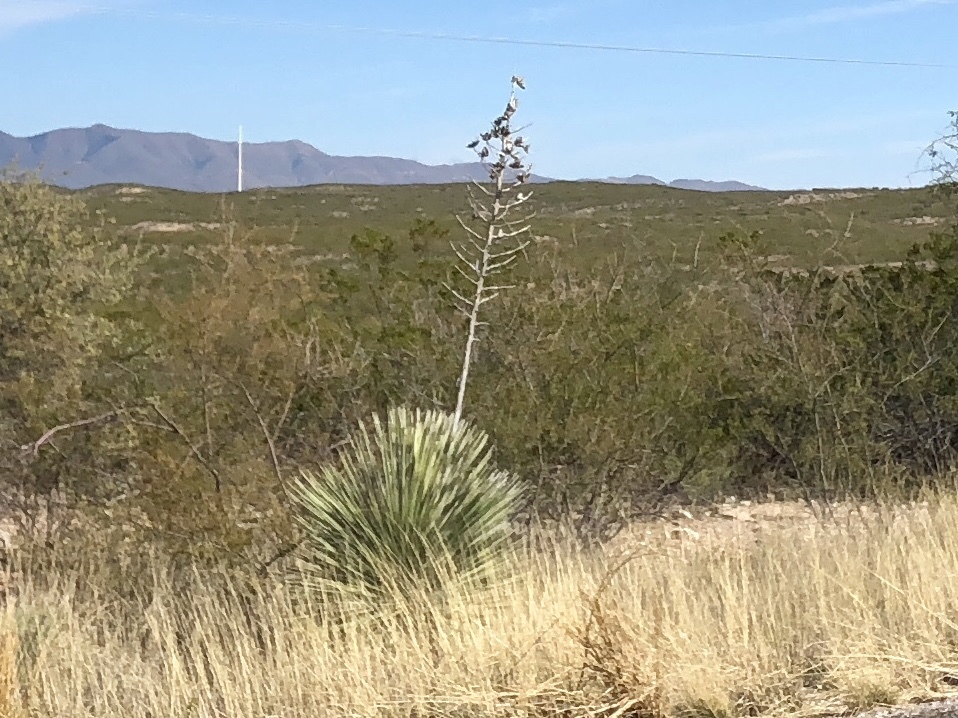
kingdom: Plantae
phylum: Tracheophyta
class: Liliopsida
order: Asparagales
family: Asparagaceae
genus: Yucca
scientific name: Yucca elata
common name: Palmella
